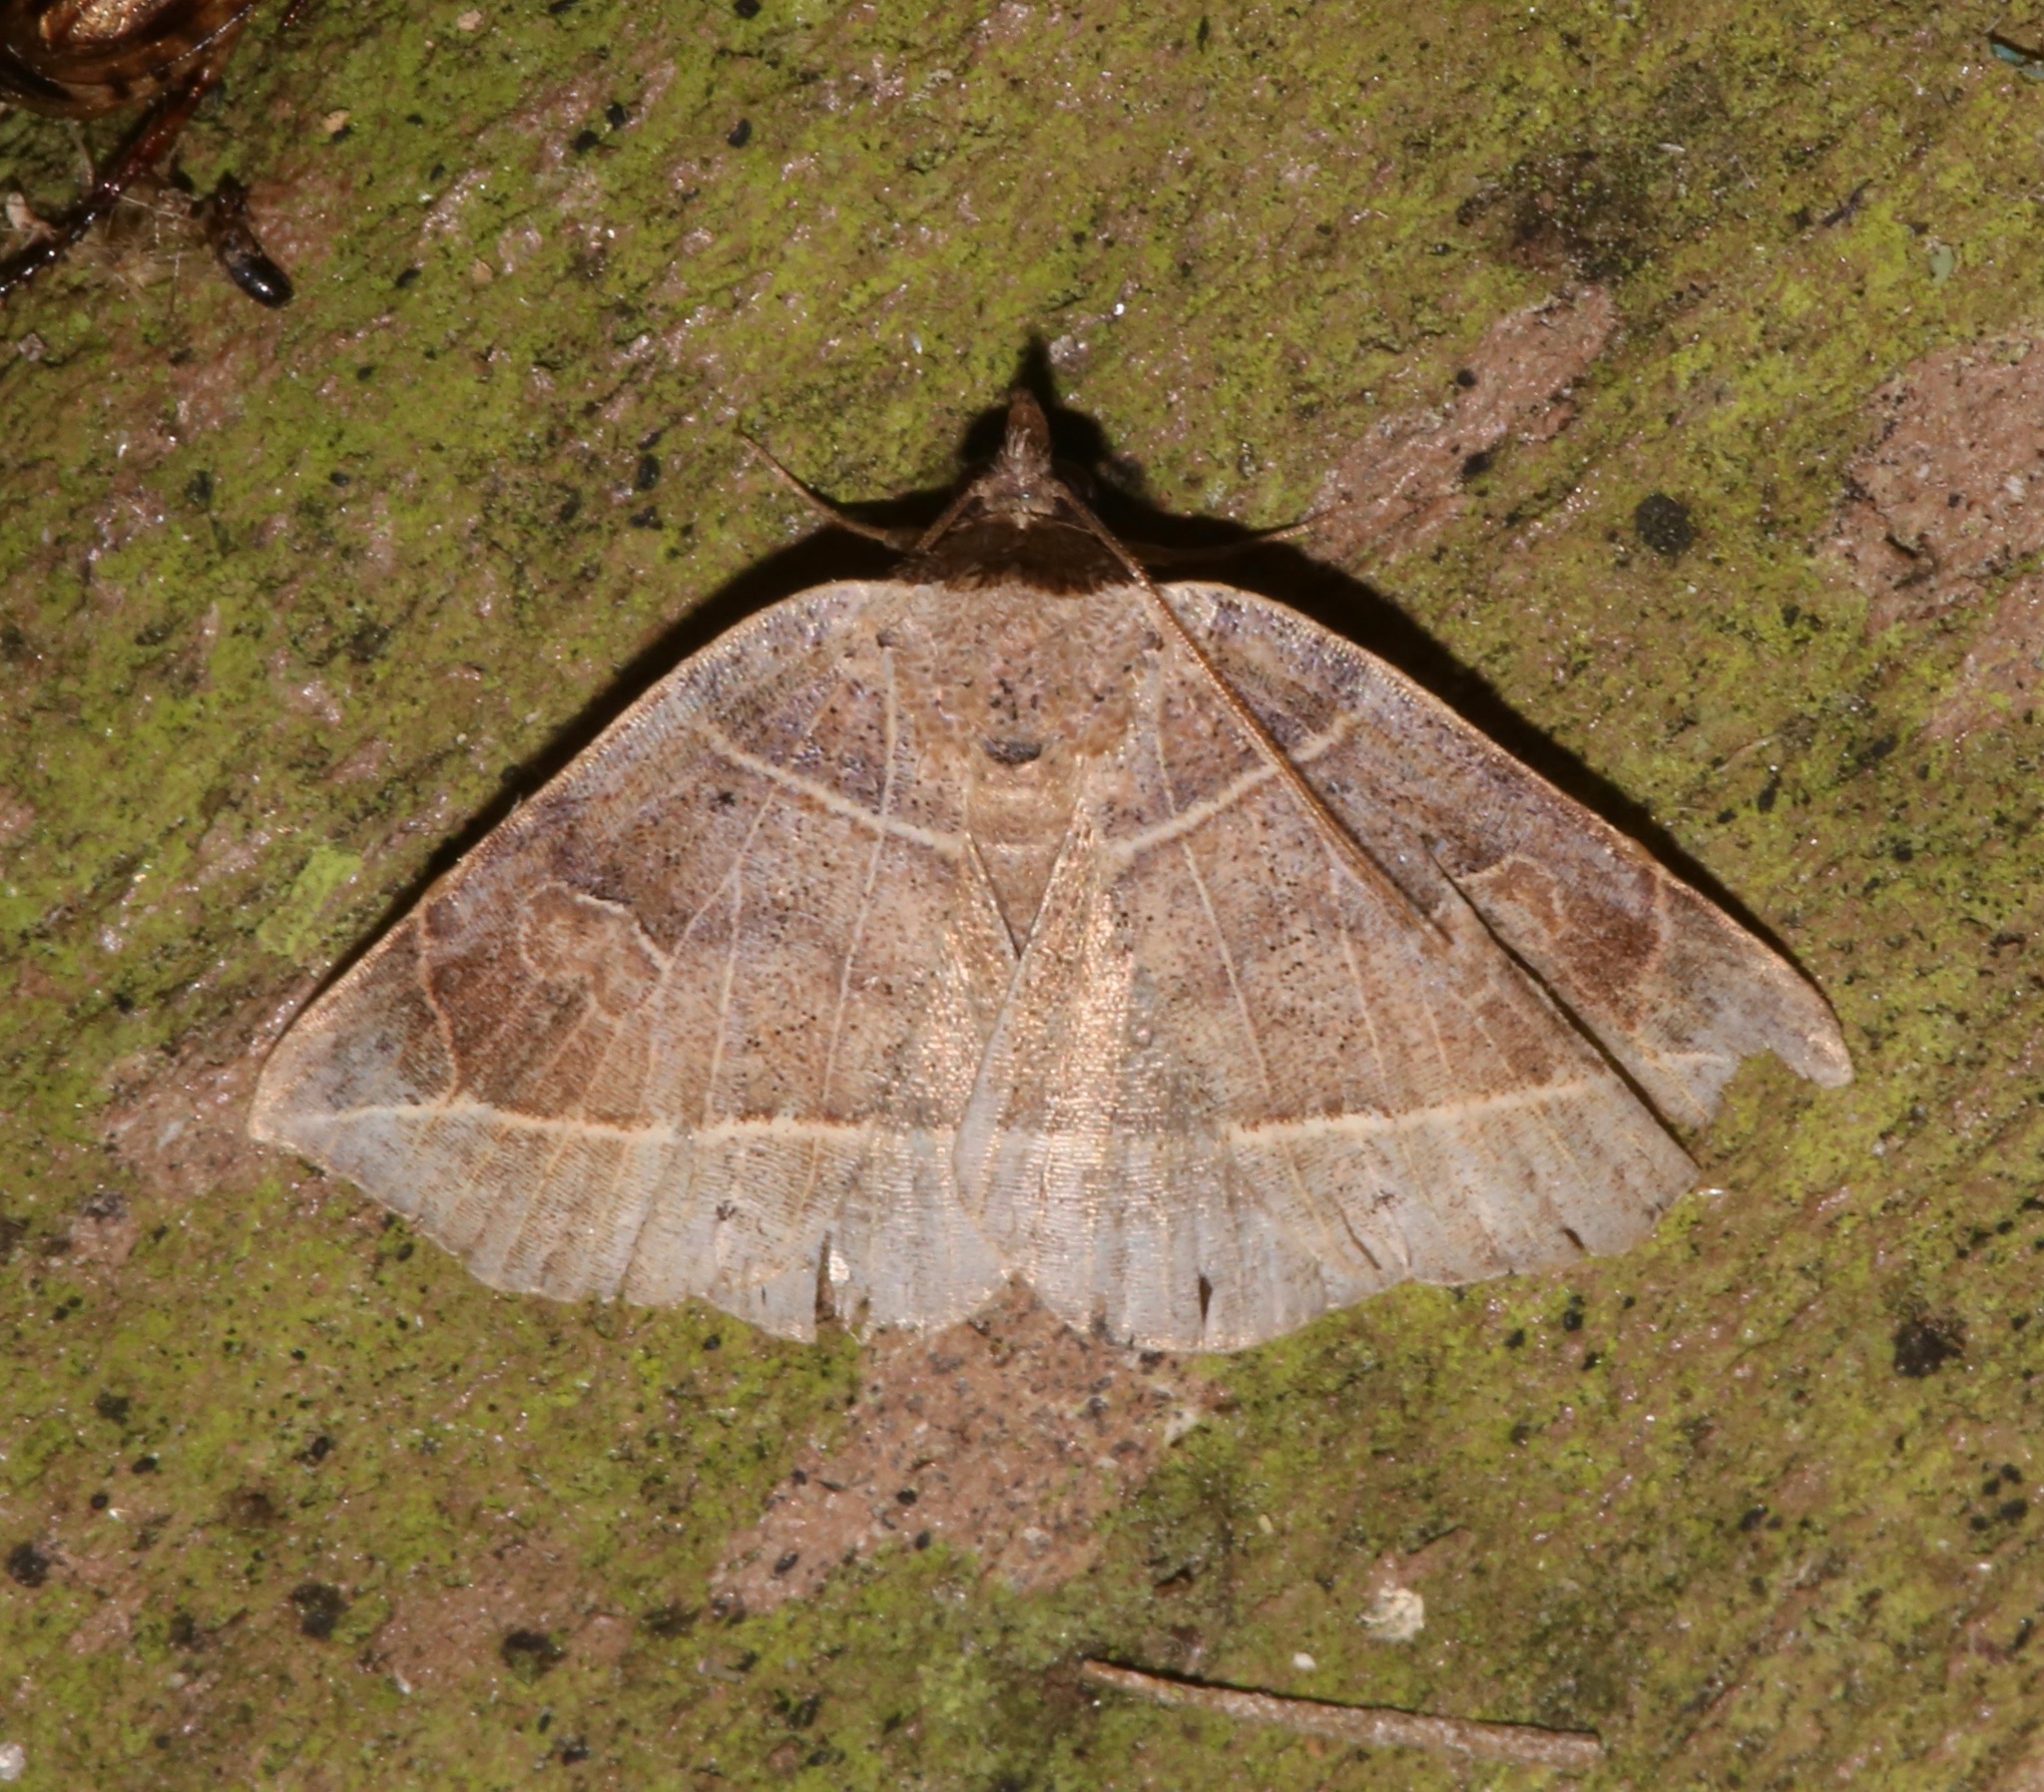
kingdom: Animalia
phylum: Arthropoda
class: Insecta
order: Lepidoptera
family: Erebidae
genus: Isogona
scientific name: Isogona tenuis
